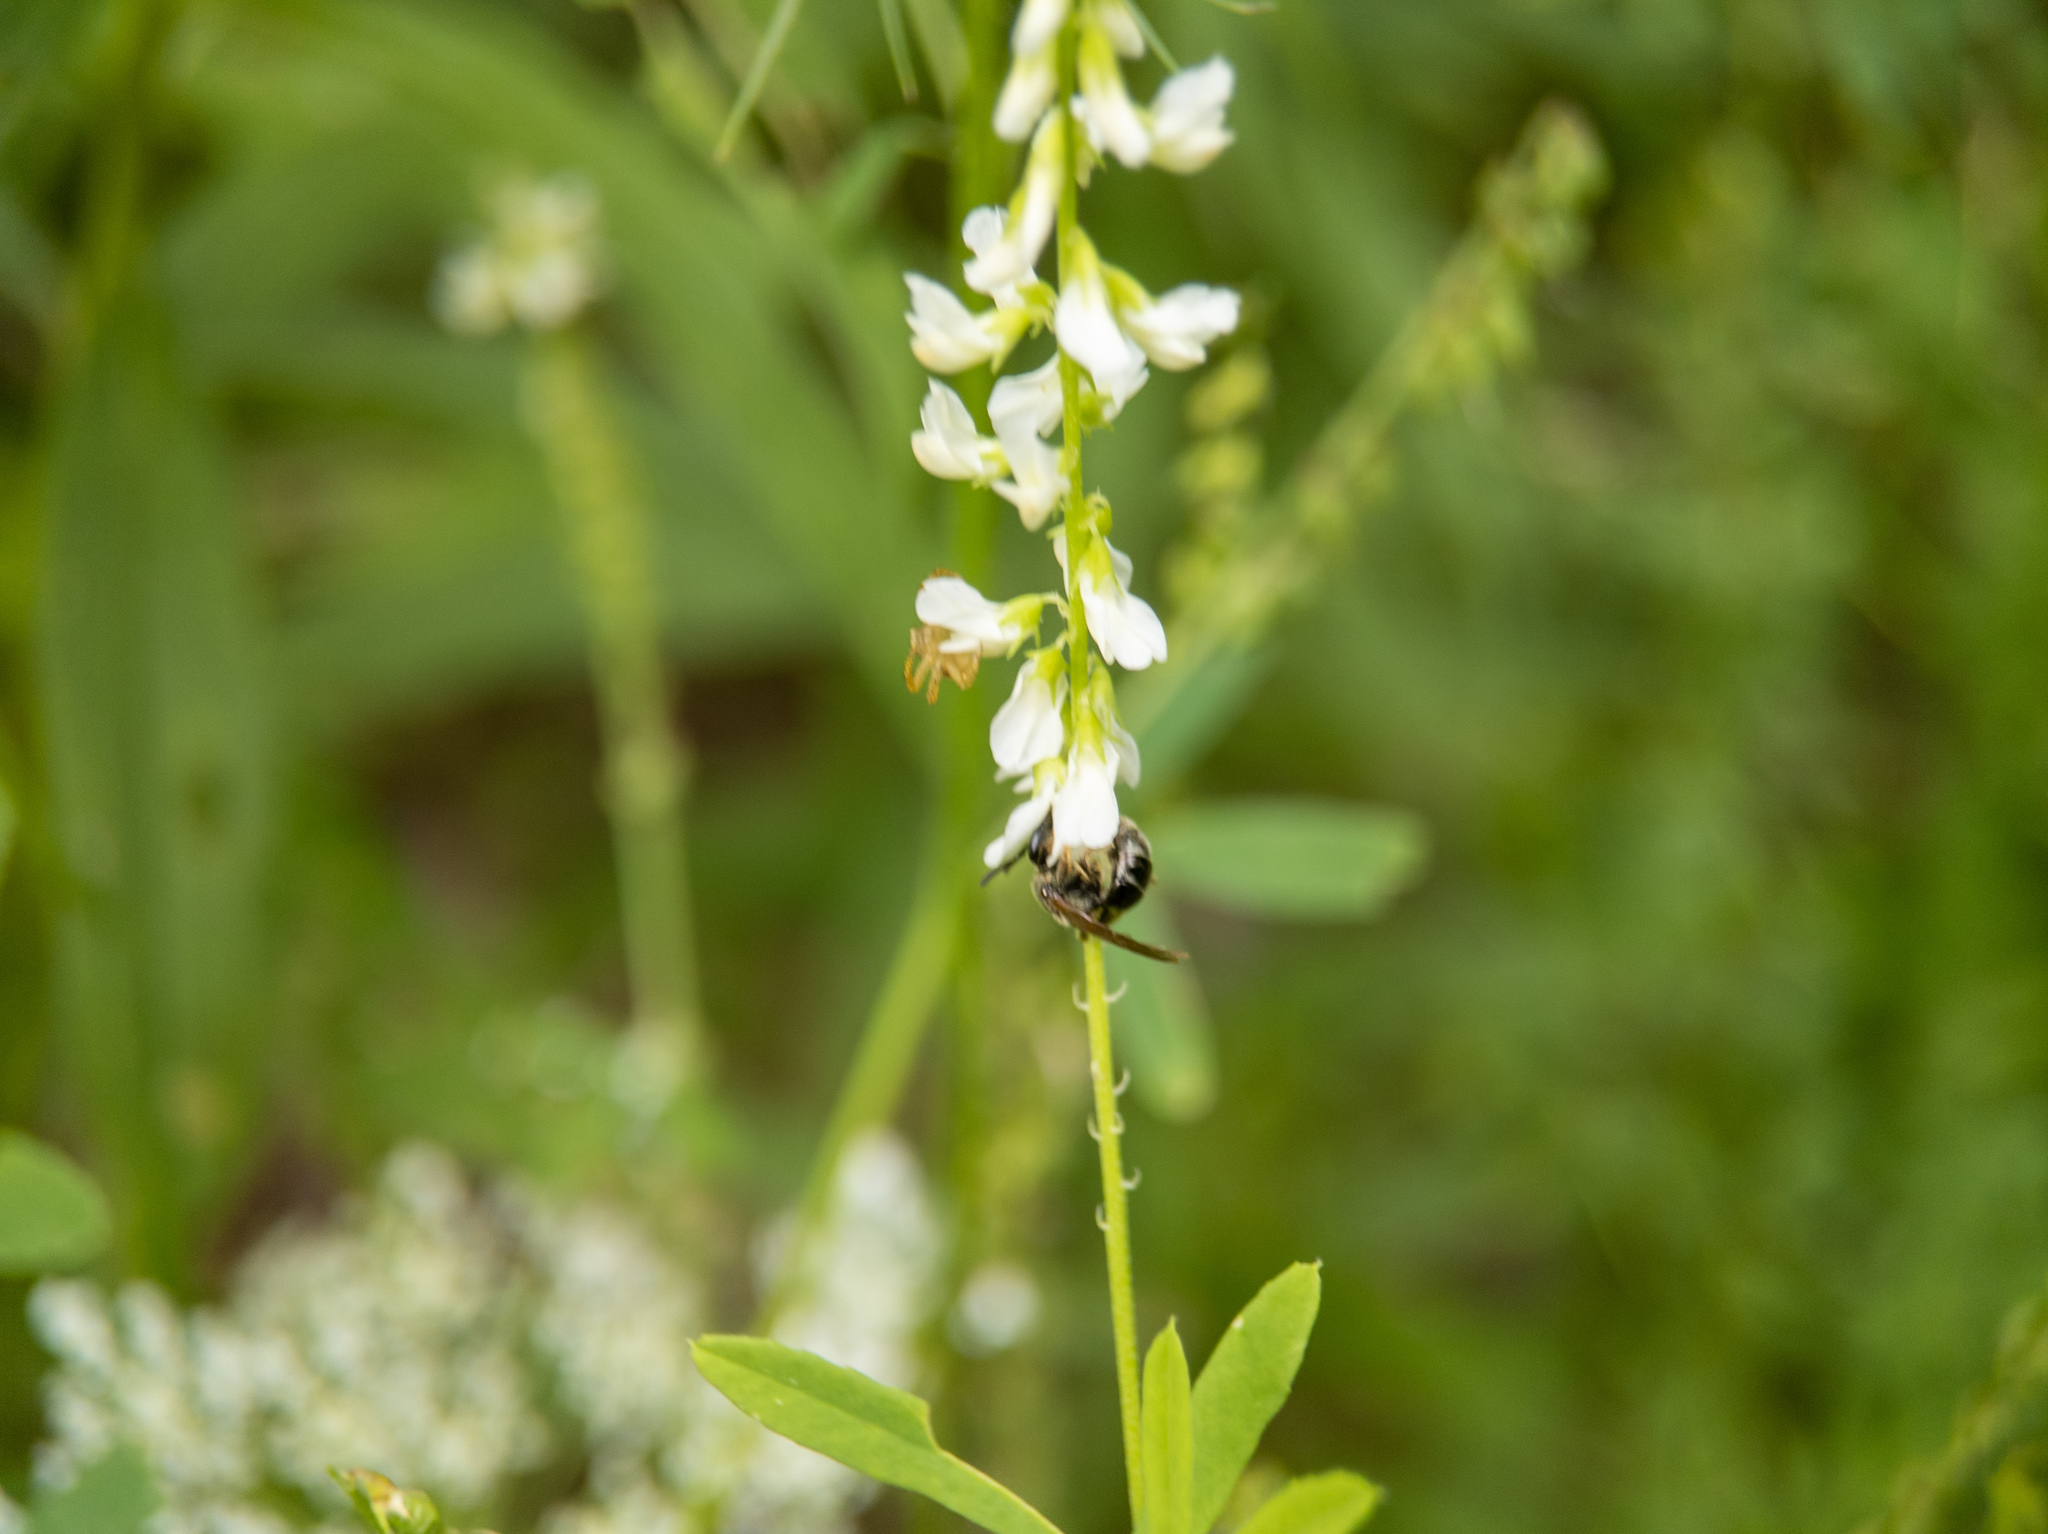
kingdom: Plantae
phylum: Tracheophyta
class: Magnoliopsida
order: Fabales
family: Fabaceae
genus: Melilotus
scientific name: Melilotus albus
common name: White melilot
